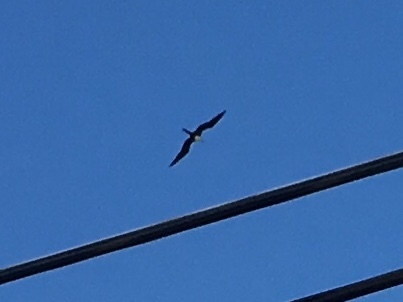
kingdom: Animalia
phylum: Chordata
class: Aves
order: Suliformes
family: Fregatidae
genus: Fregata
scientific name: Fregata magnificens
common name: Magnificent frigatebird
